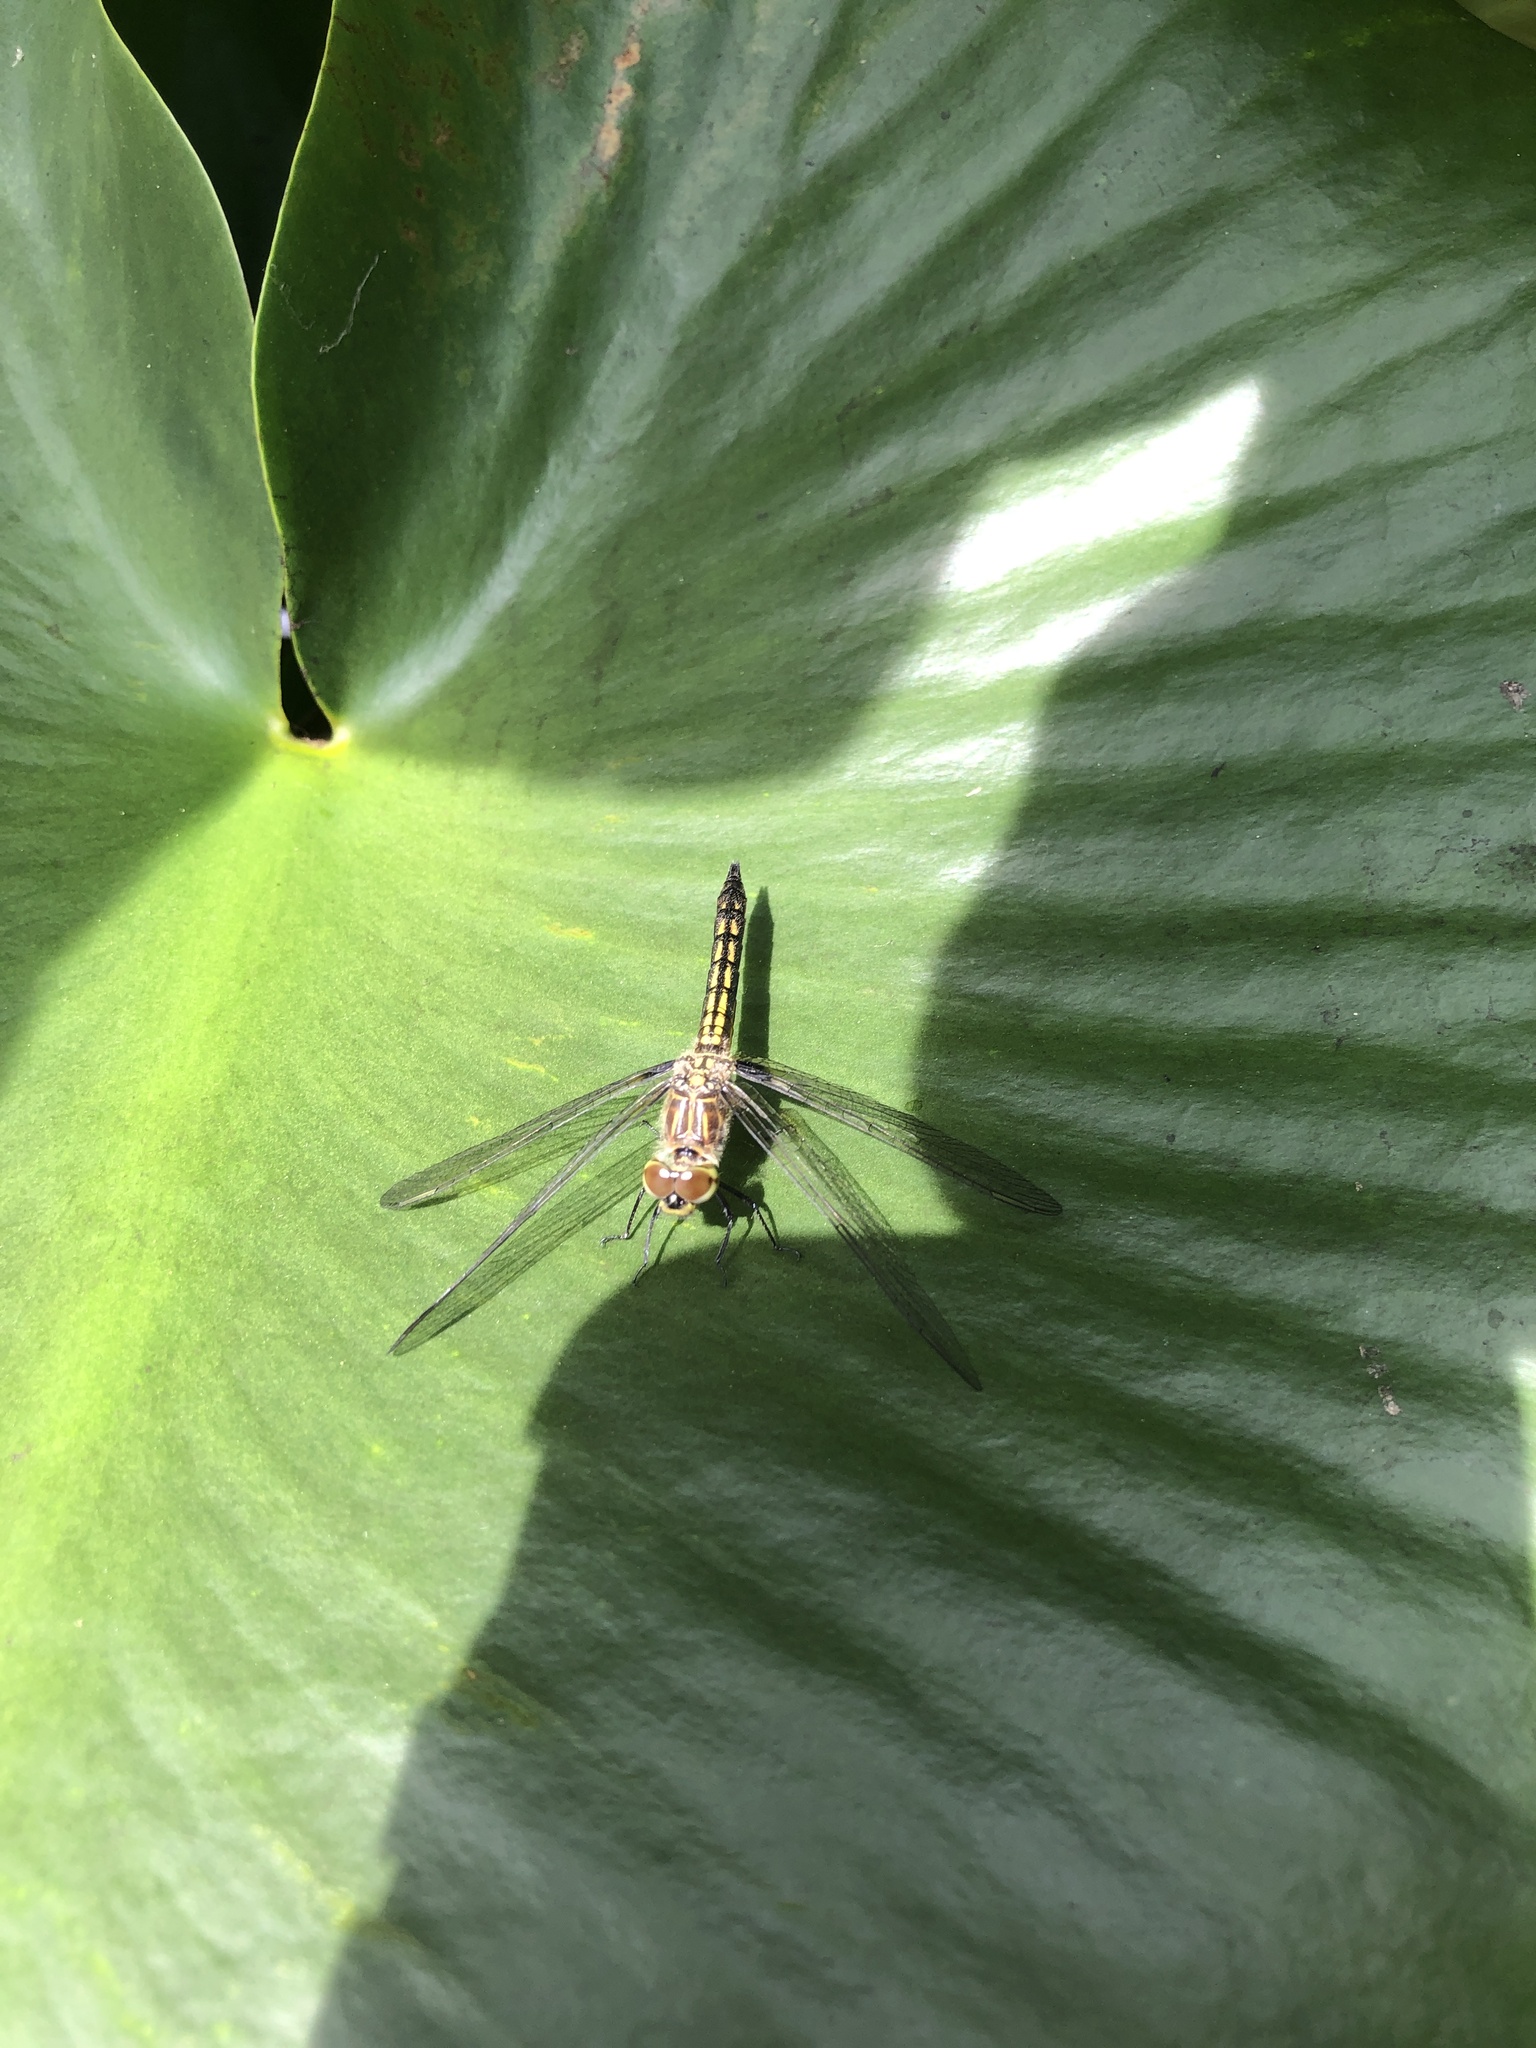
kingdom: Animalia
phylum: Arthropoda
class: Insecta
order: Odonata
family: Libellulidae
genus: Pachydiplax
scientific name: Pachydiplax longipennis
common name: Blue dasher
